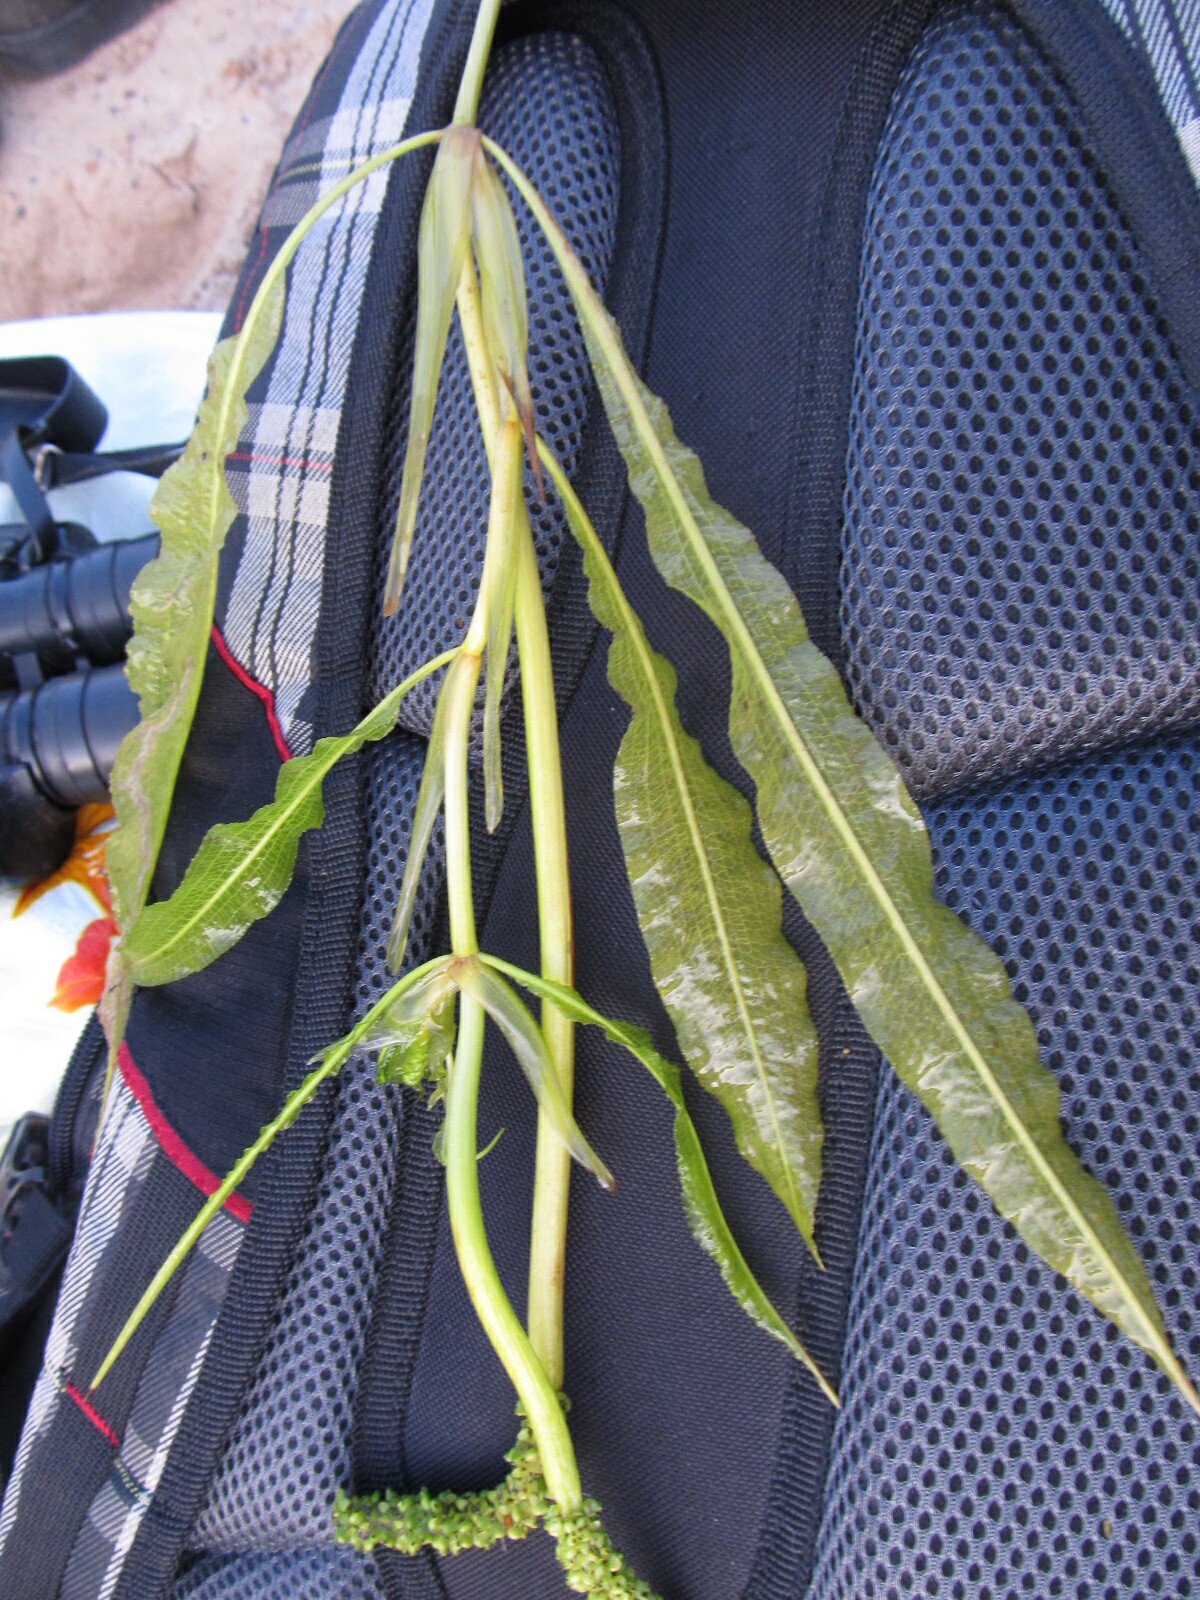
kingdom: Plantae
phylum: Tracheophyta
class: Liliopsida
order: Alismatales
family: Potamogetonaceae
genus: Potamogeton
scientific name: Potamogeton lucens
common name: Shining pondweed
